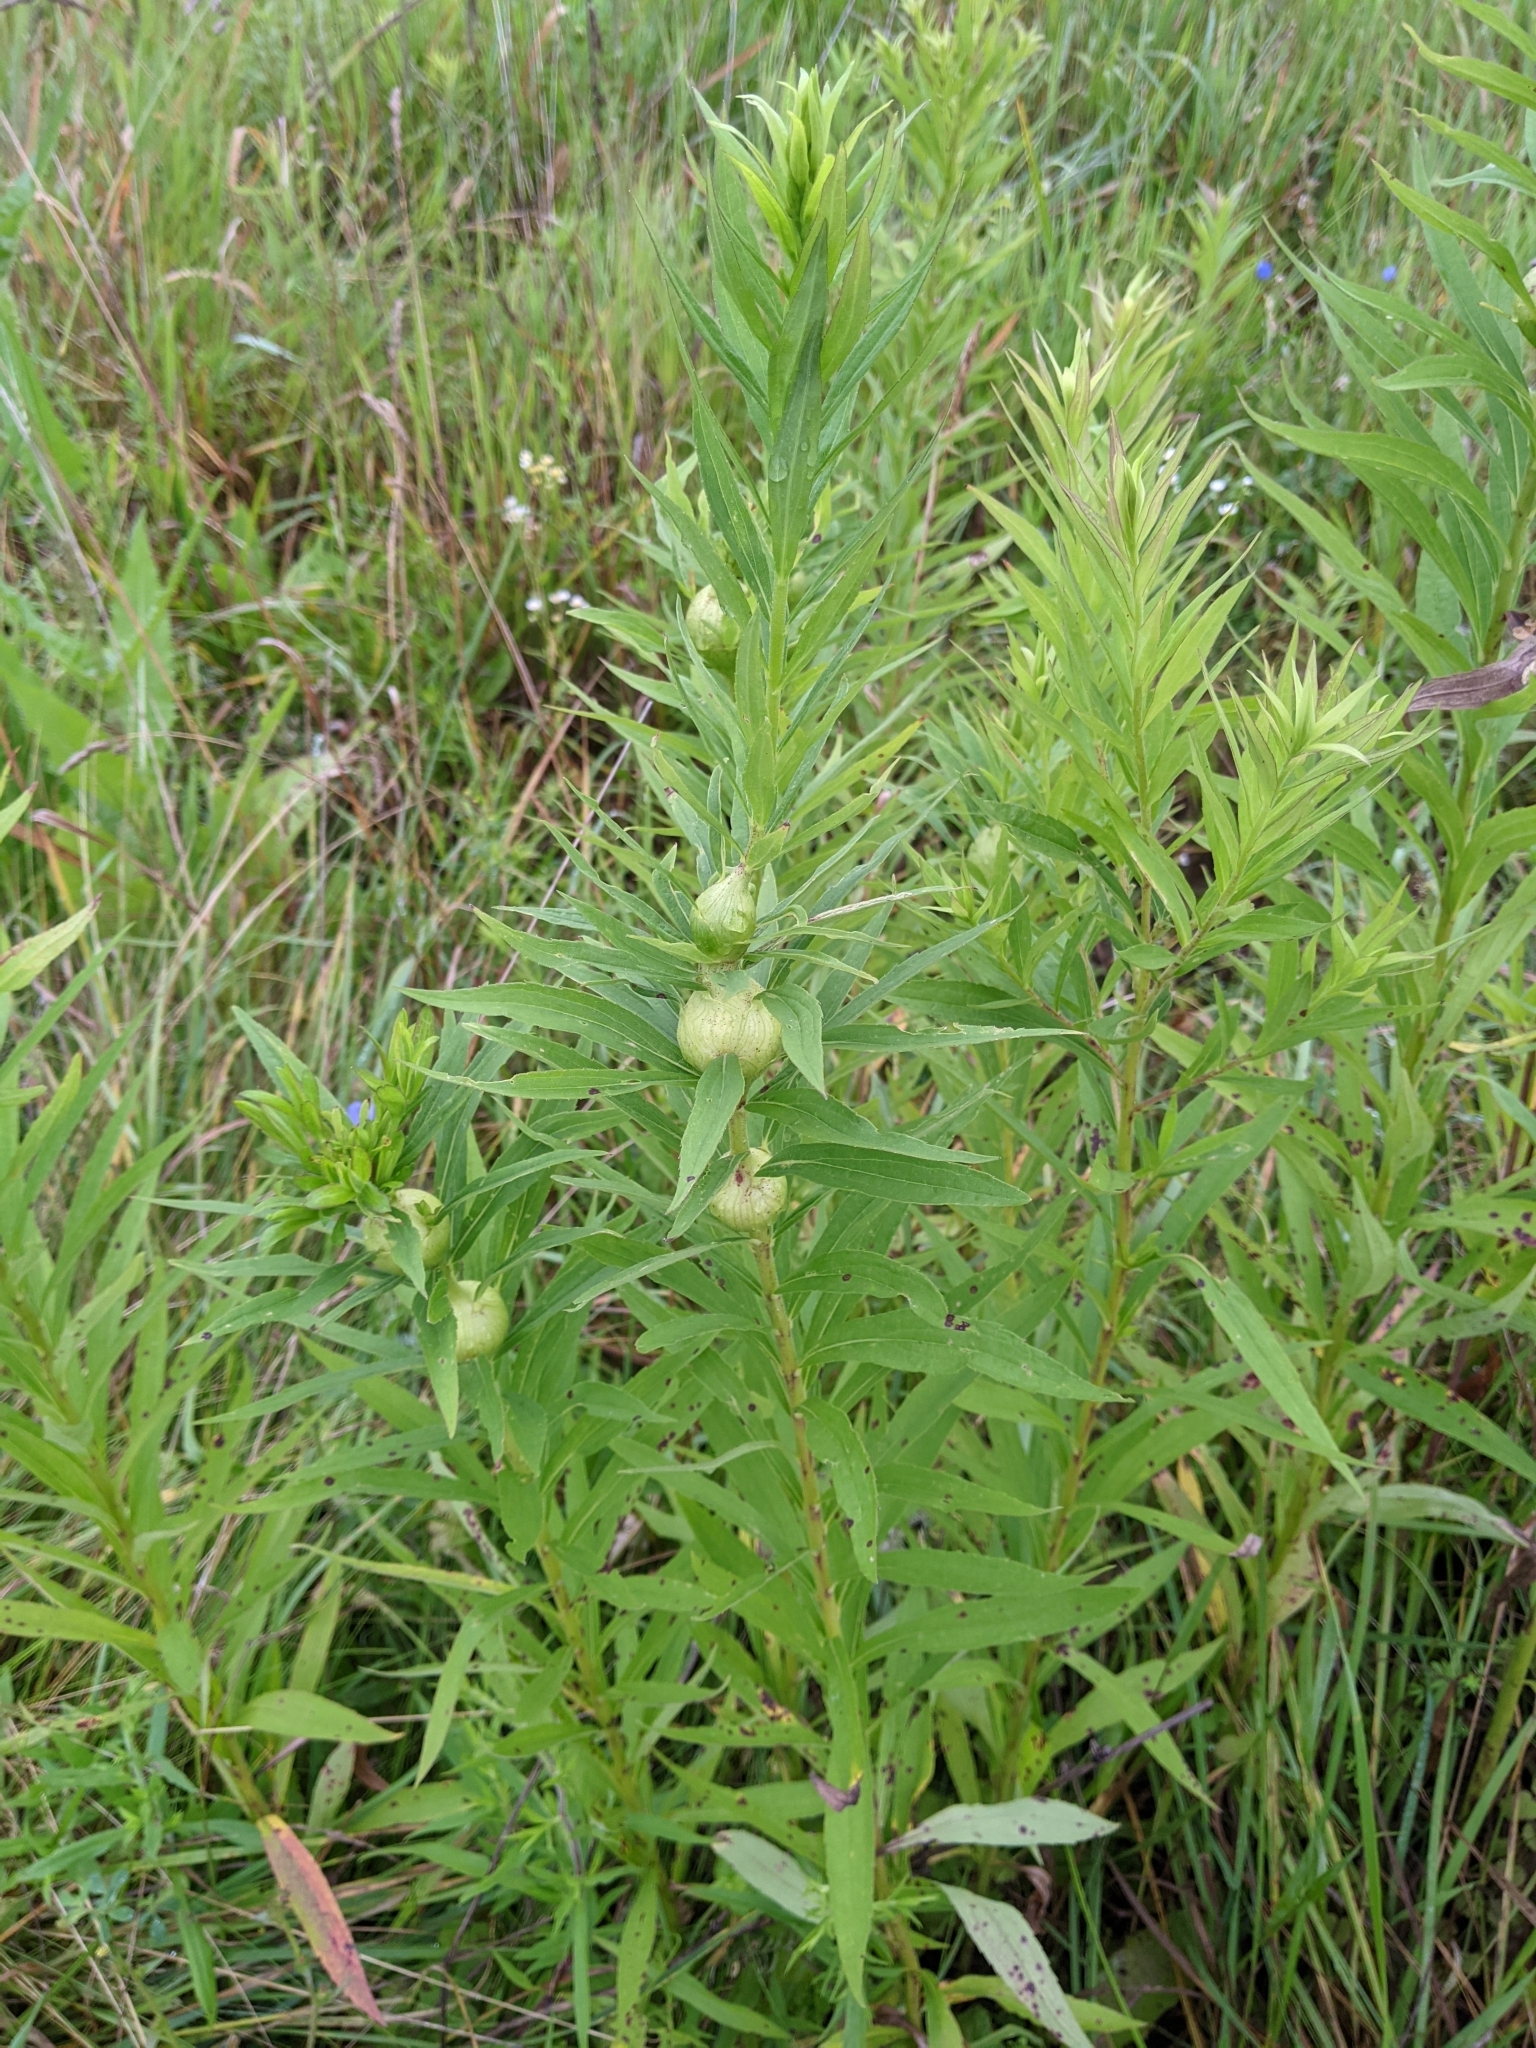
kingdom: Animalia
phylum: Arthropoda
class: Insecta
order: Diptera
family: Tephritidae
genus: Eurosta
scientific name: Eurosta solidaginis
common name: Goldenrod gall fly
